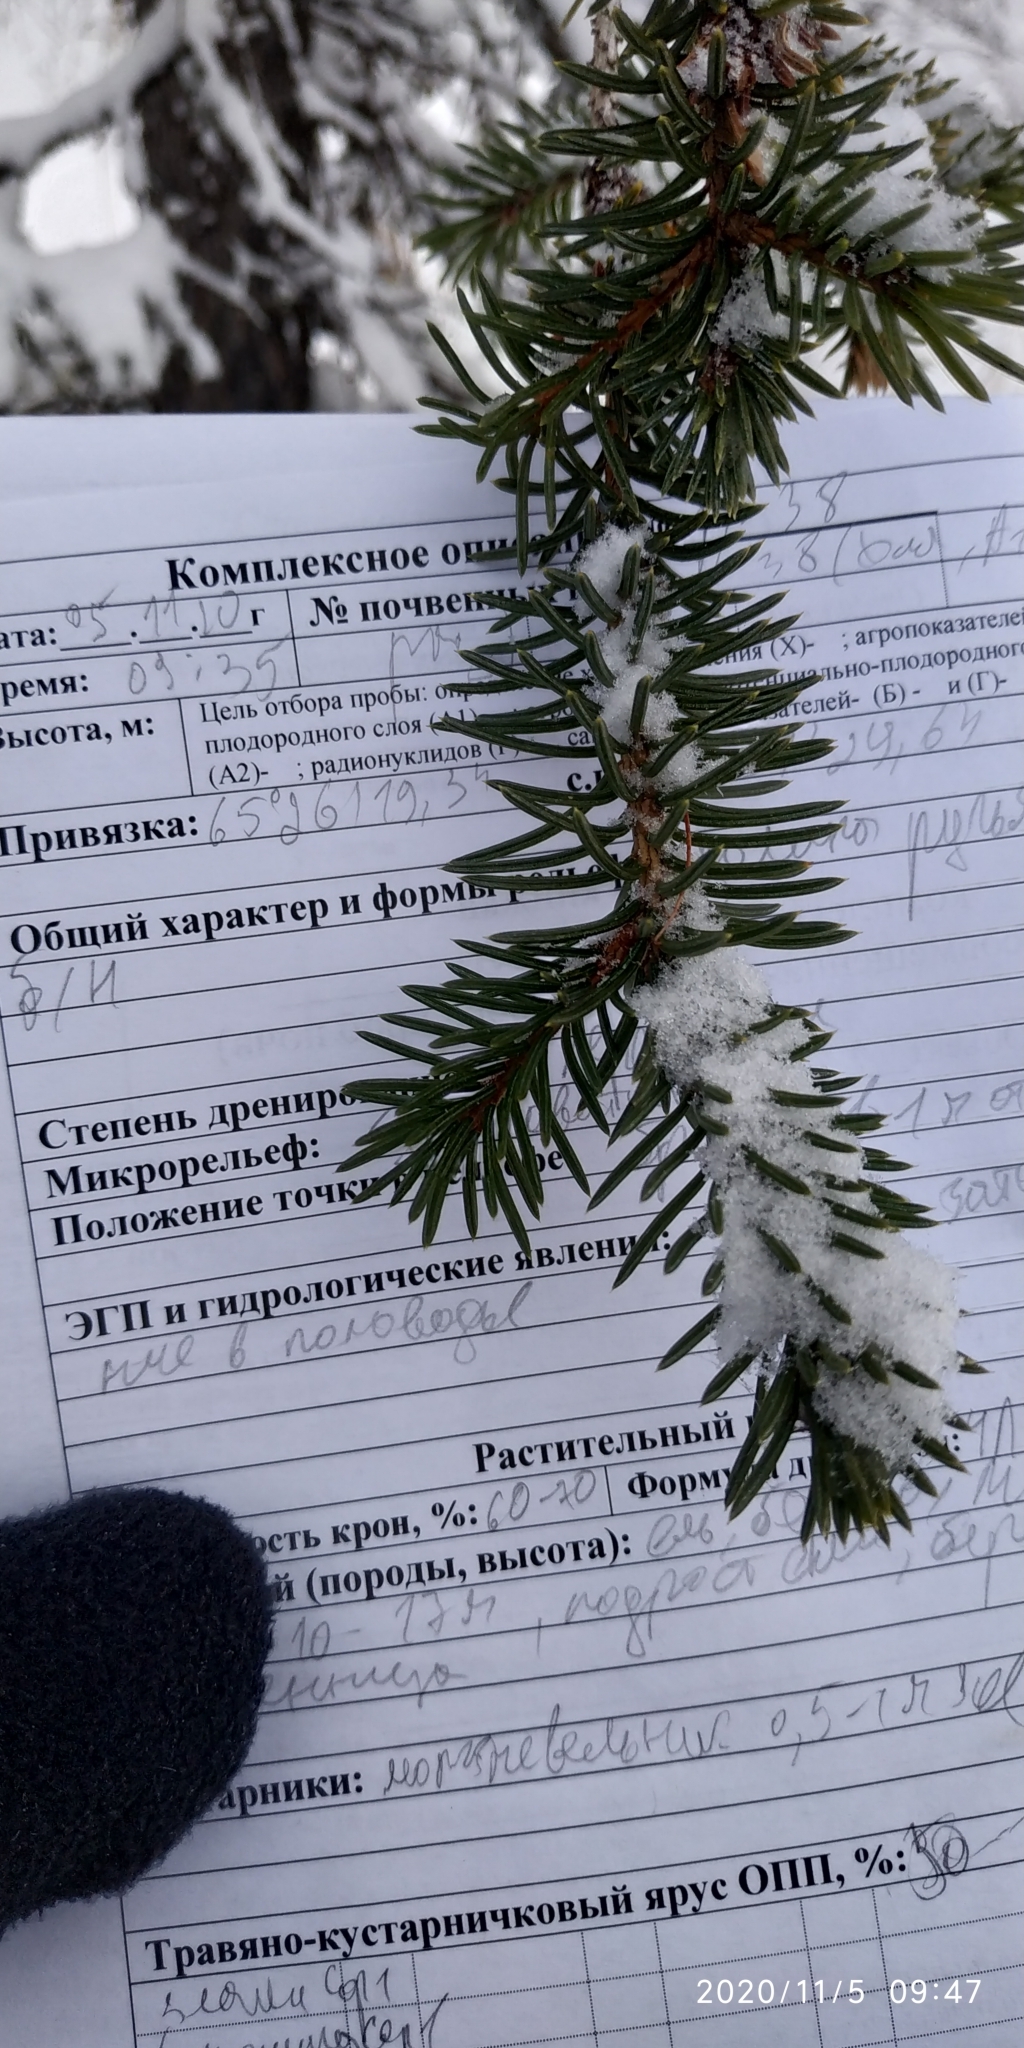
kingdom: Plantae
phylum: Tracheophyta
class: Pinopsida
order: Pinales
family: Pinaceae
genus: Picea
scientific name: Picea obovata
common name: Siberian spruce
